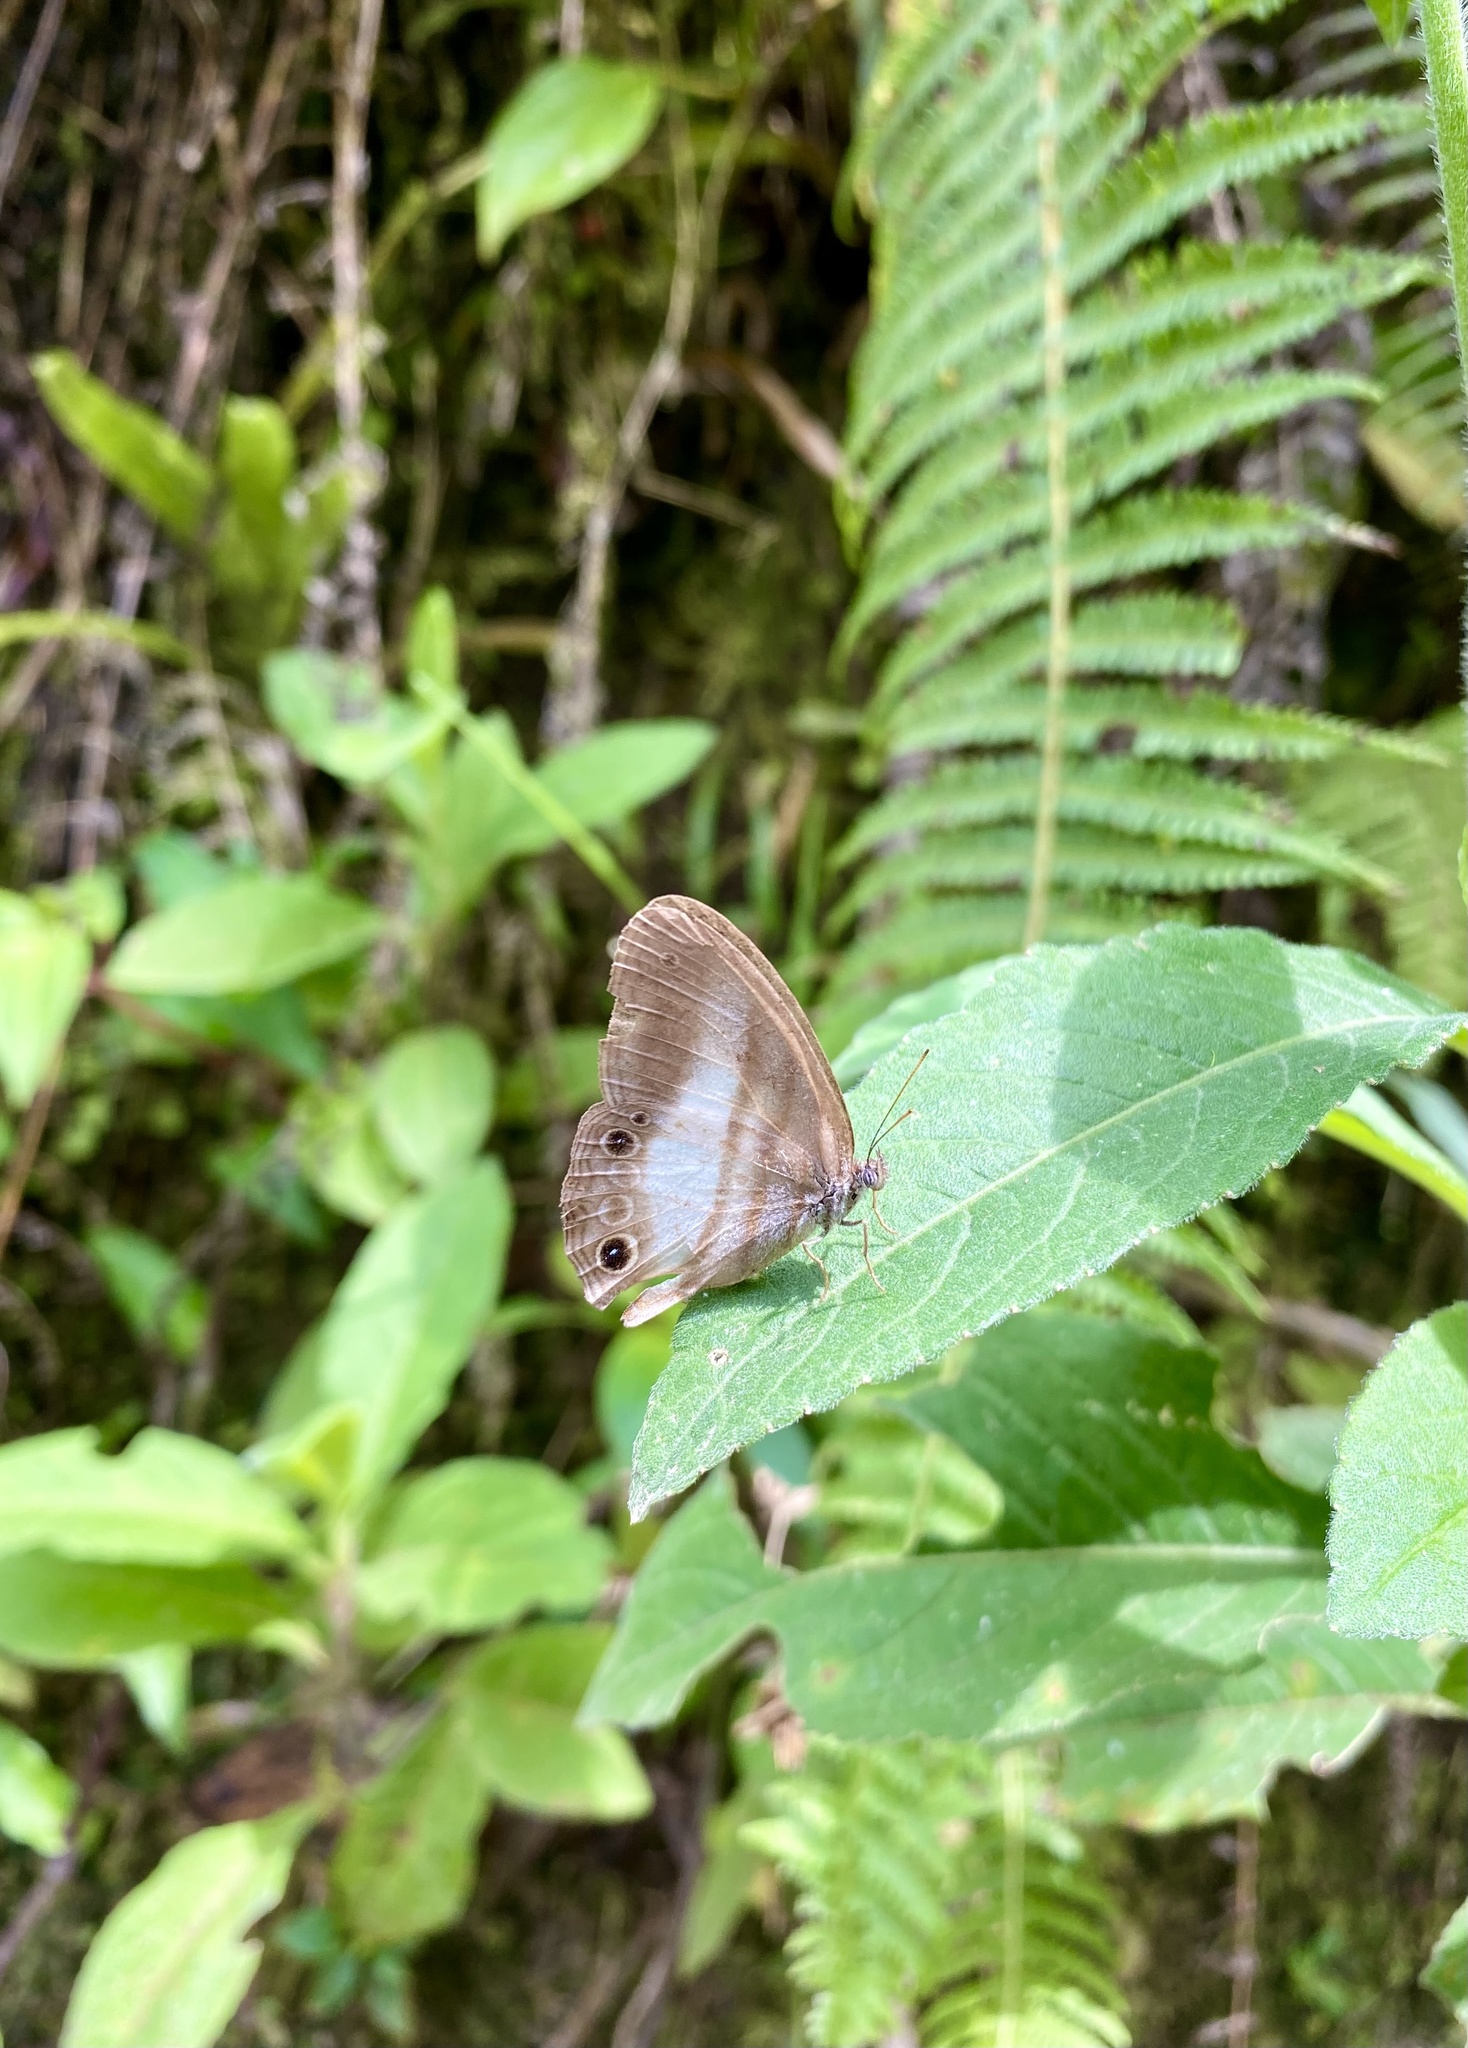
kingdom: Animalia
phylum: Arthropoda
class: Insecta
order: Lepidoptera
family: Nymphalidae
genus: Pareuptychia
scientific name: Pareuptychia metaleuca
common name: White-banded satyr
